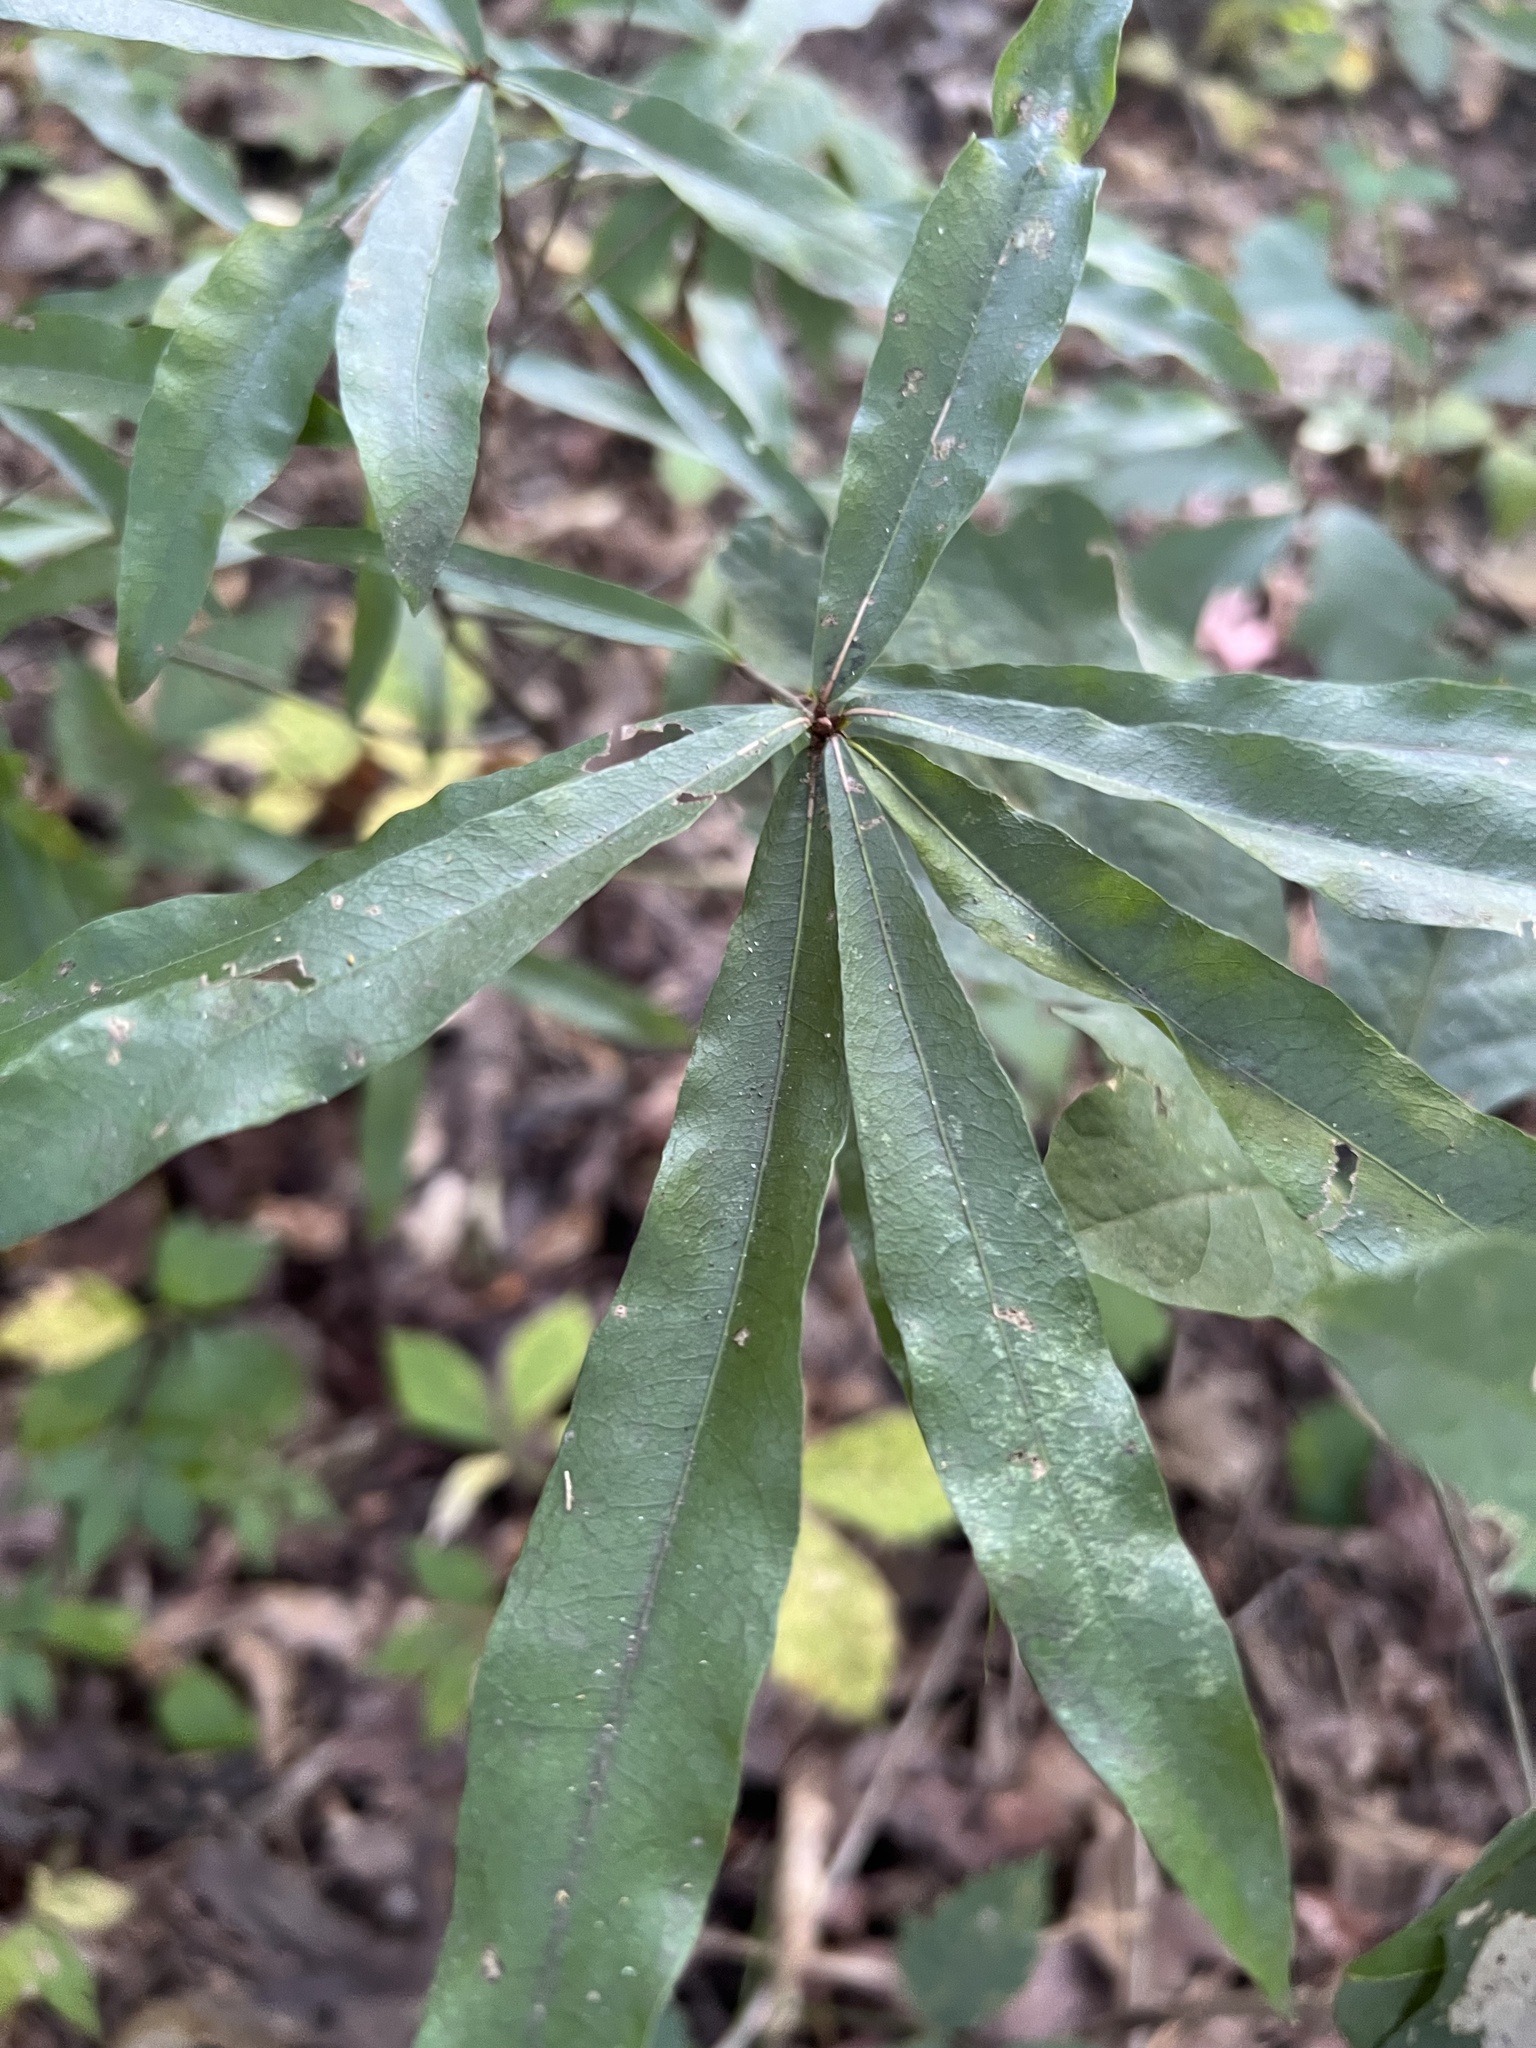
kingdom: Plantae
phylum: Tracheophyta
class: Magnoliopsida
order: Fagales
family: Fagaceae
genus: Quercus
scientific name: Quercus phellos
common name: Willow oak
